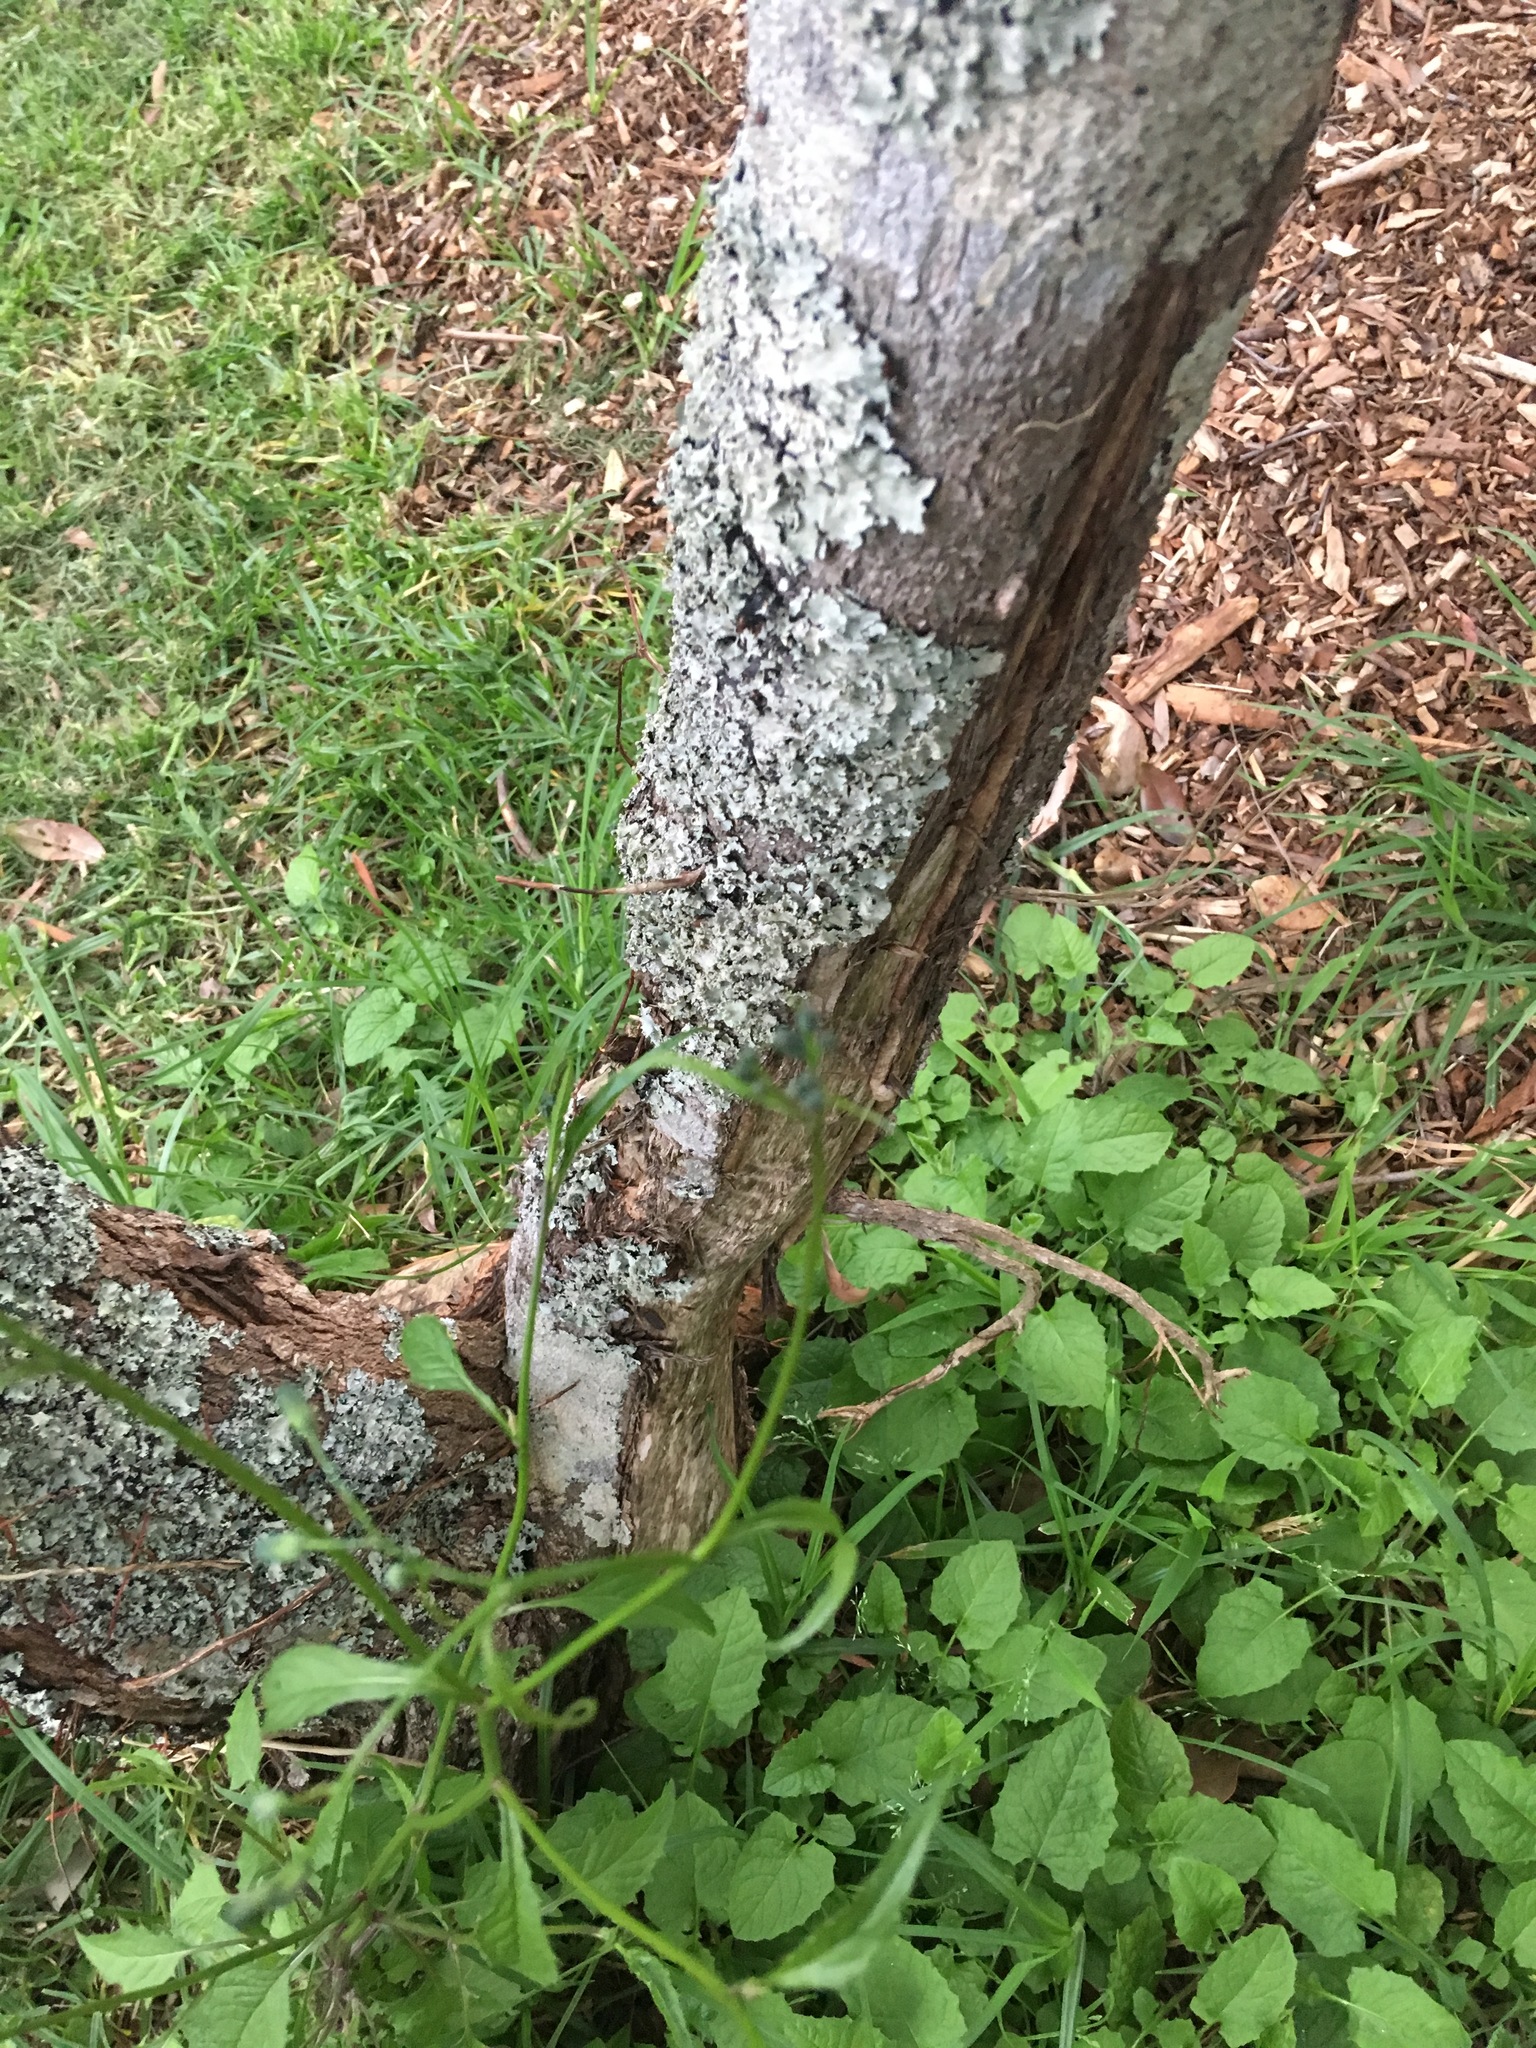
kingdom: Plantae
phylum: Tracheophyta
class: Magnoliopsida
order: Asterales
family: Asteraceae
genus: Lapsana
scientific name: Lapsana communis
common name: Nipplewort
